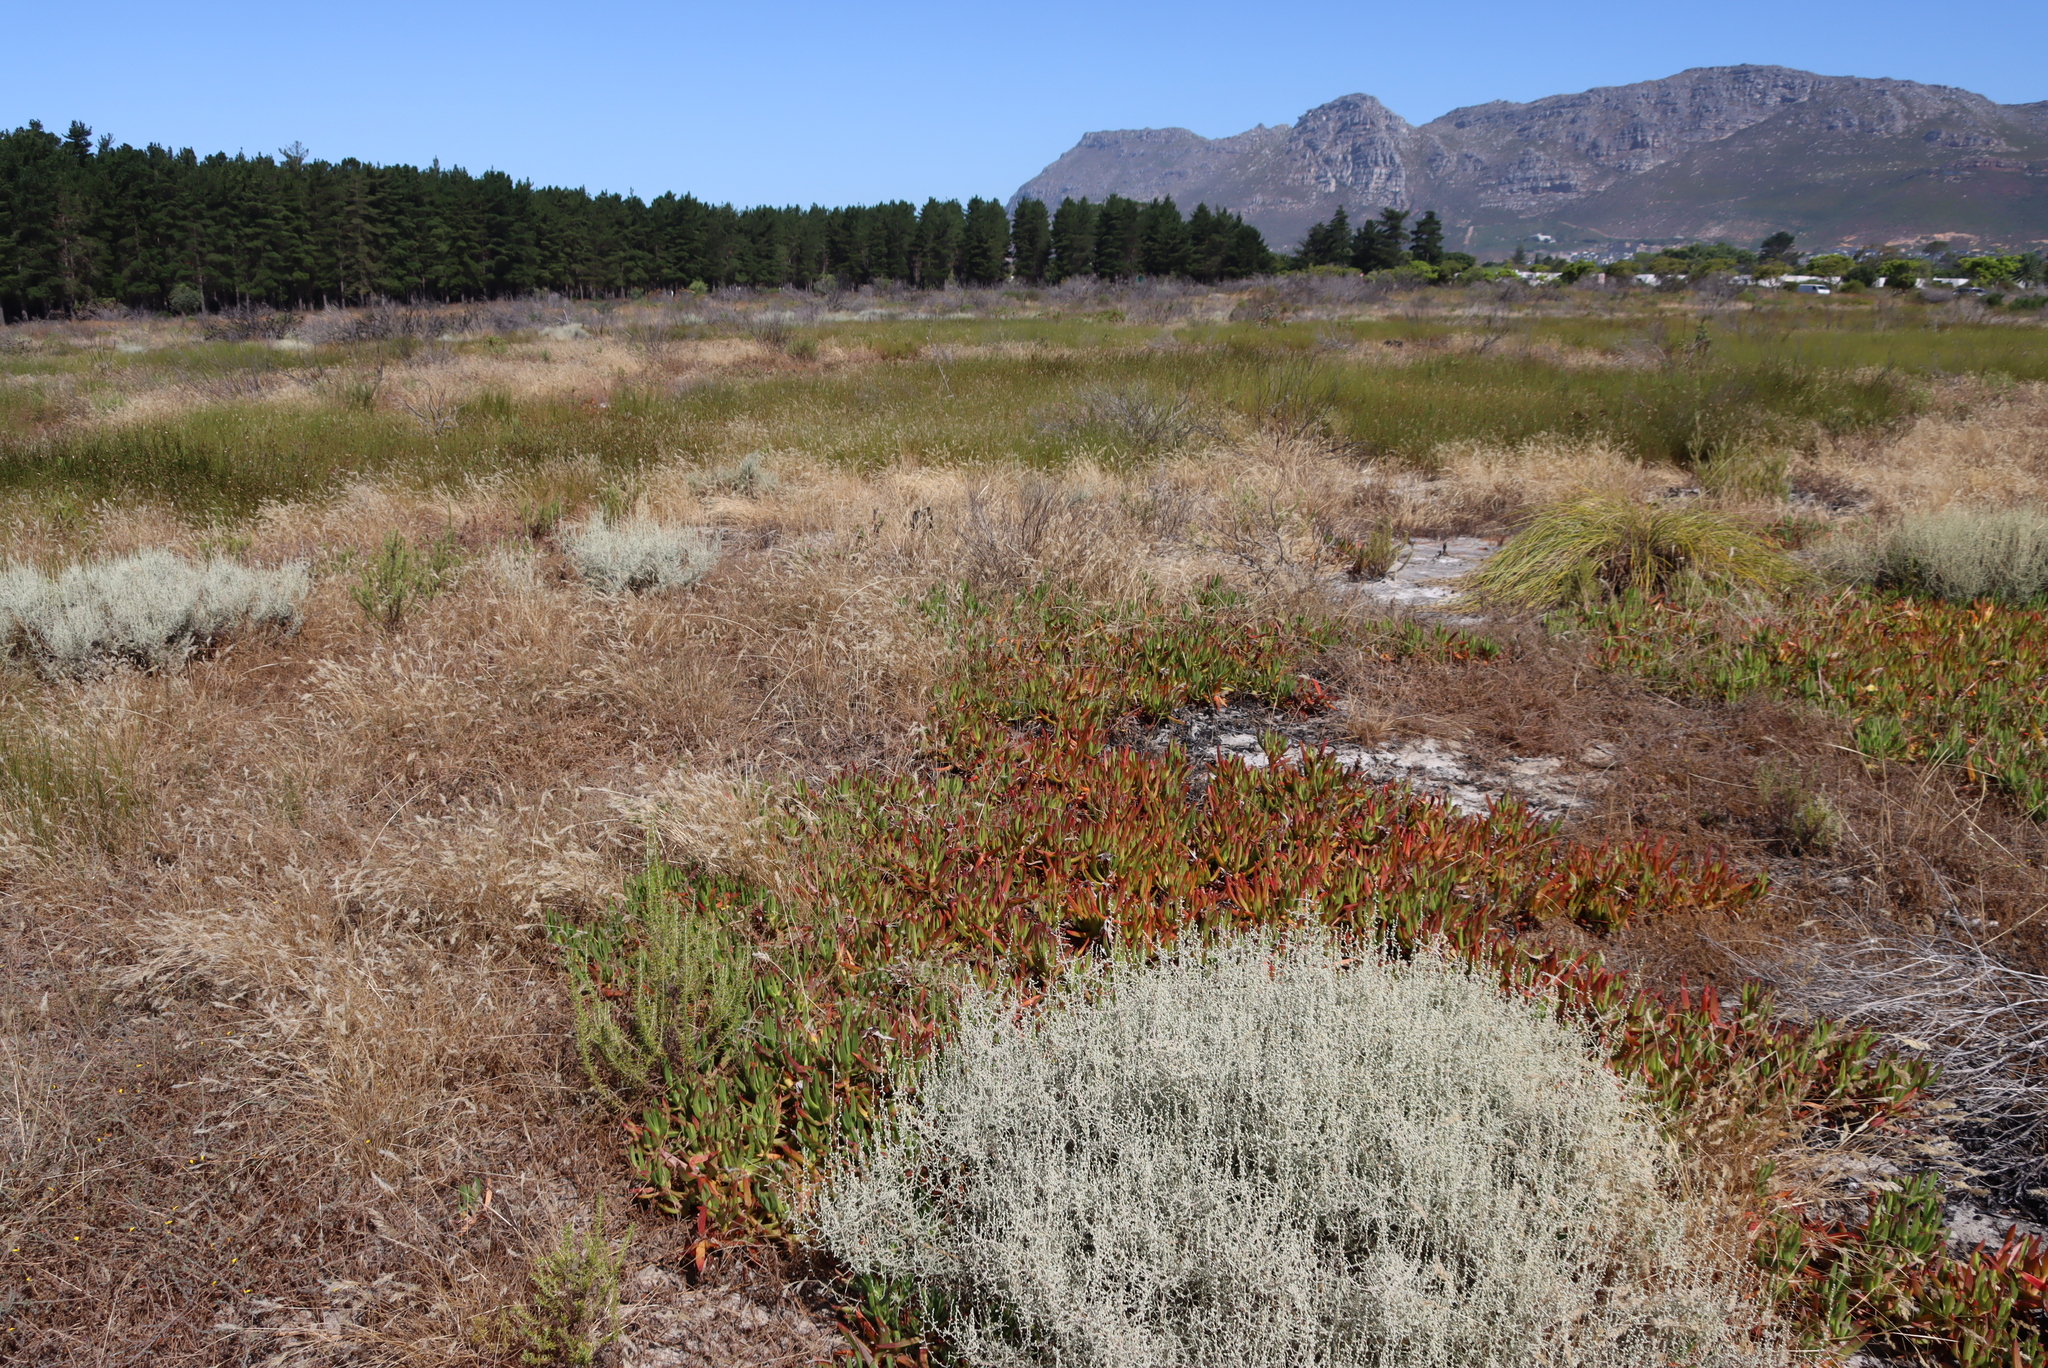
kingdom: Plantae
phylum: Tracheophyta
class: Magnoliopsida
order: Caryophyllales
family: Aizoaceae
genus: Carpobrotus
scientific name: Carpobrotus edulis
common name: Hottentot-fig
